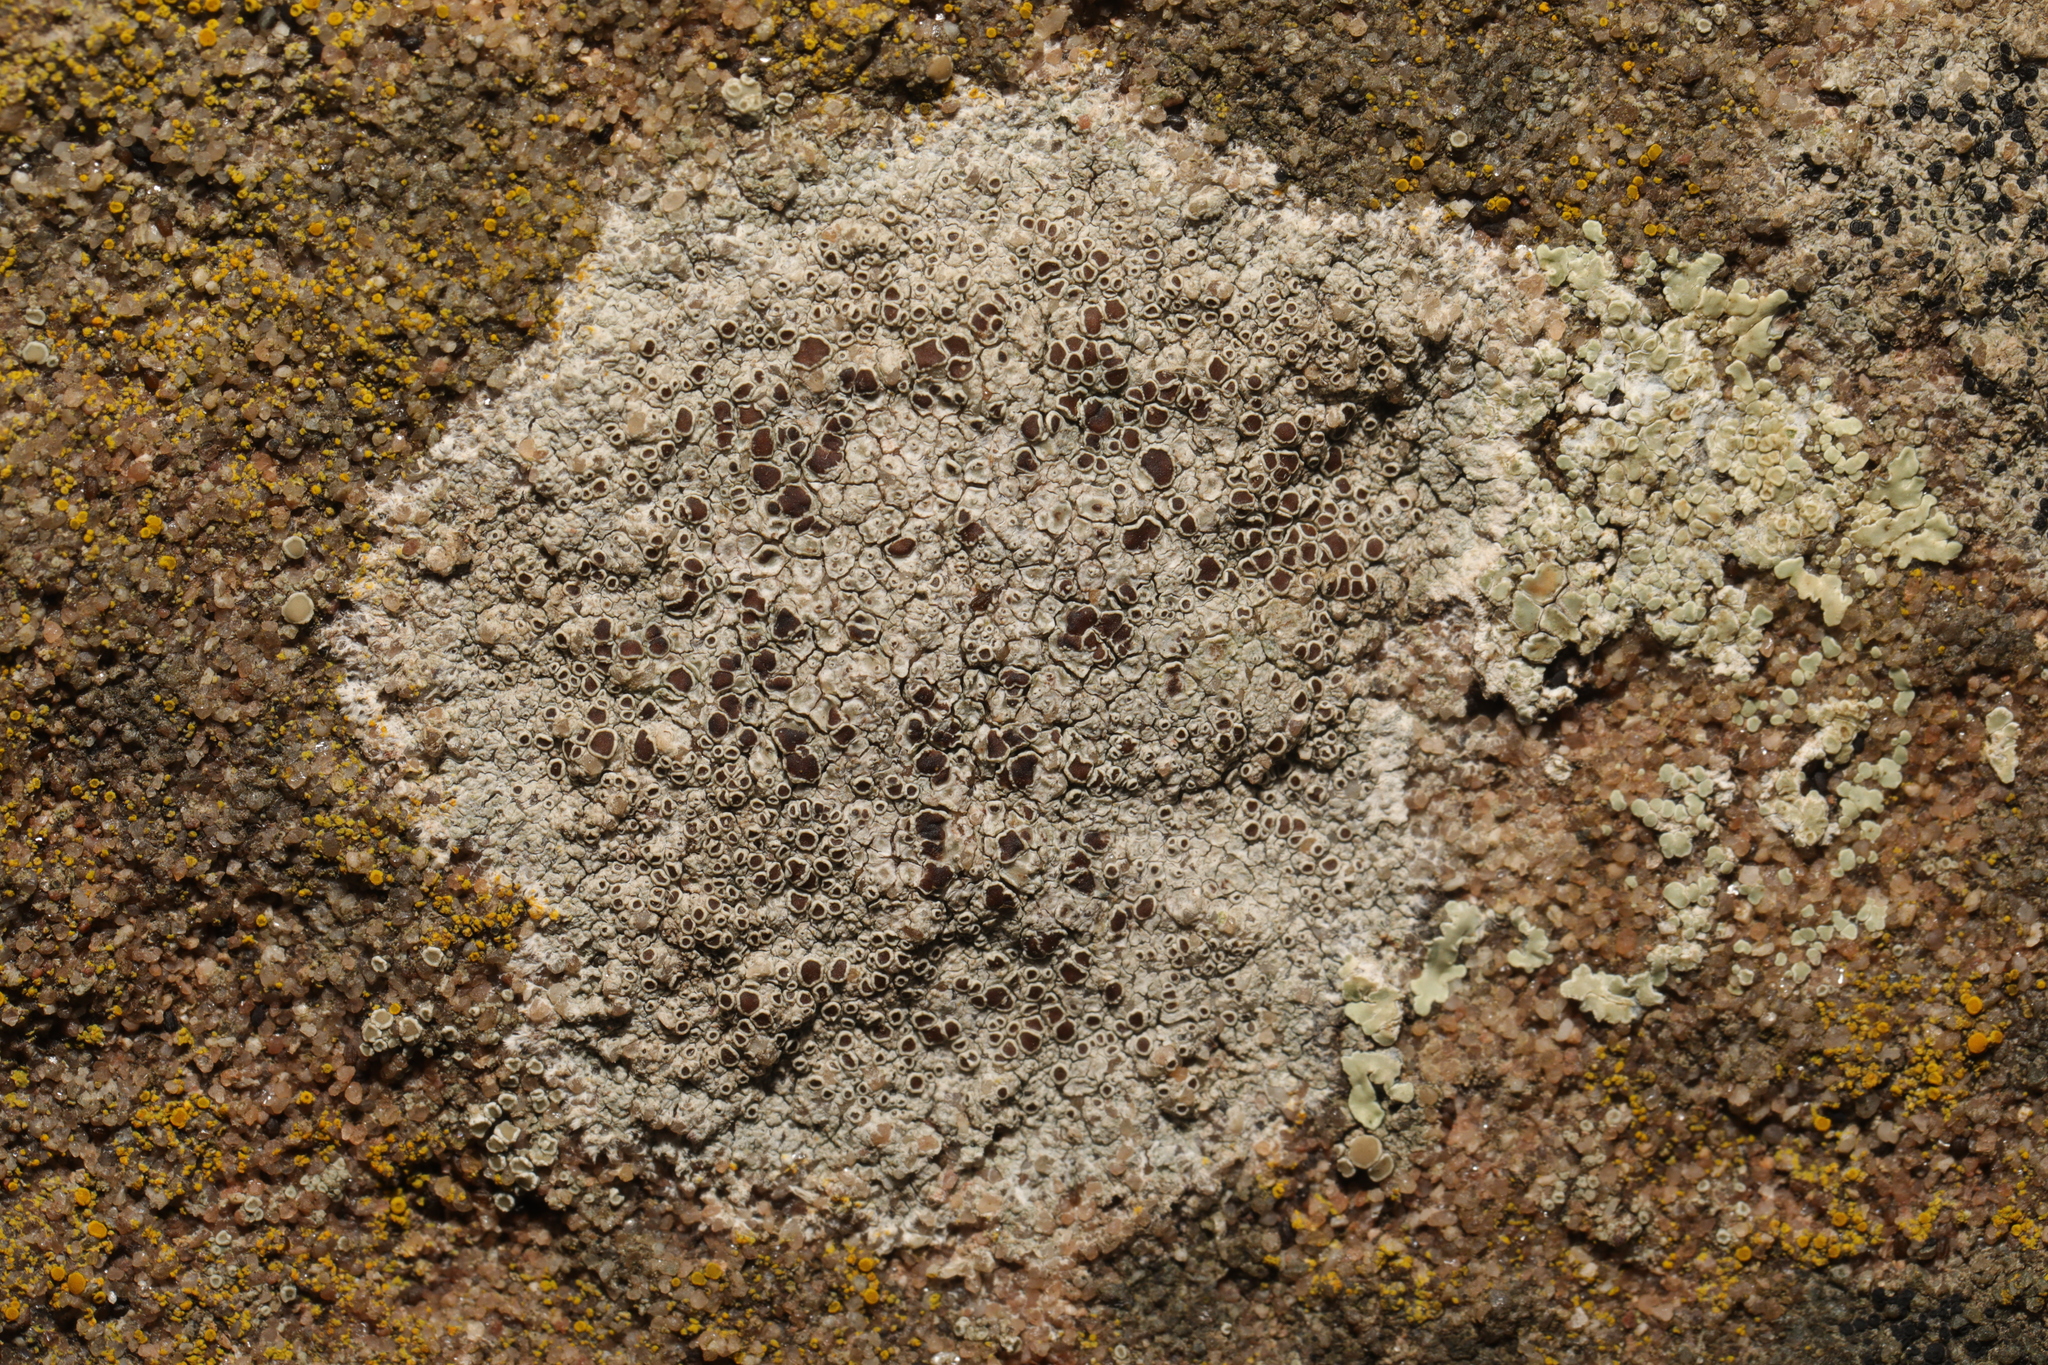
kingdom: Fungi
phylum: Ascomycota
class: Lecanoromycetes
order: Lecanorales
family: Lecanoraceae
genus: Lecanora
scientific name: Lecanora campestris
